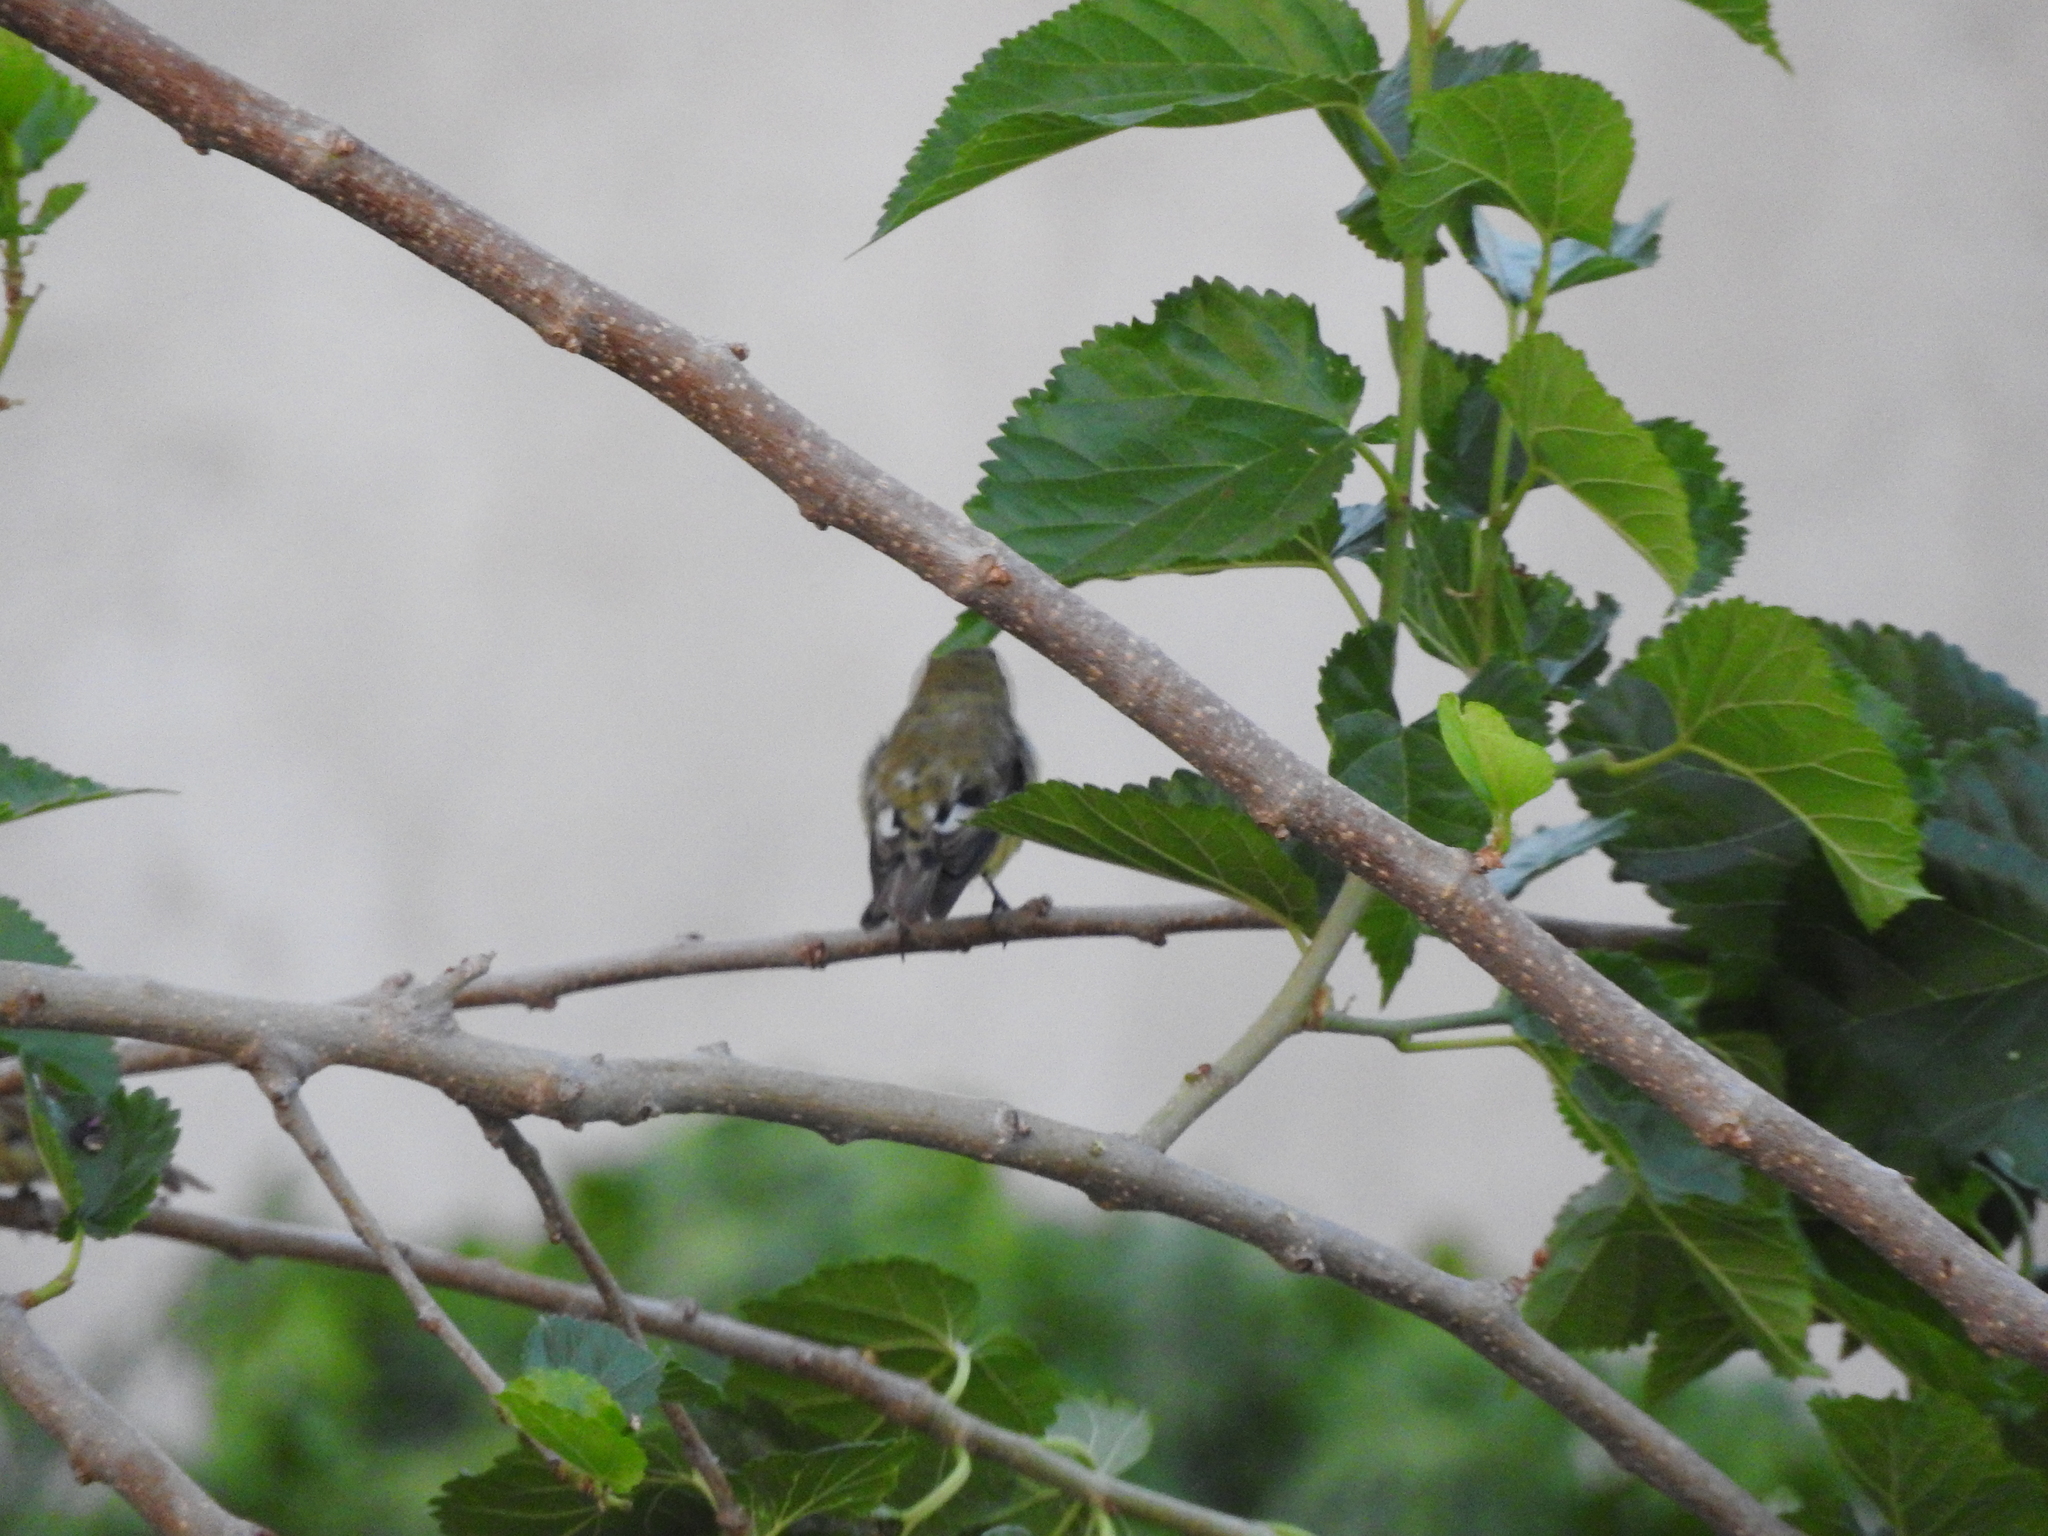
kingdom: Animalia
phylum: Chordata
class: Aves
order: Passeriformes
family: Fringillidae
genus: Spinus
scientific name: Spinus psaltria
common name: Lesser goldfinch
